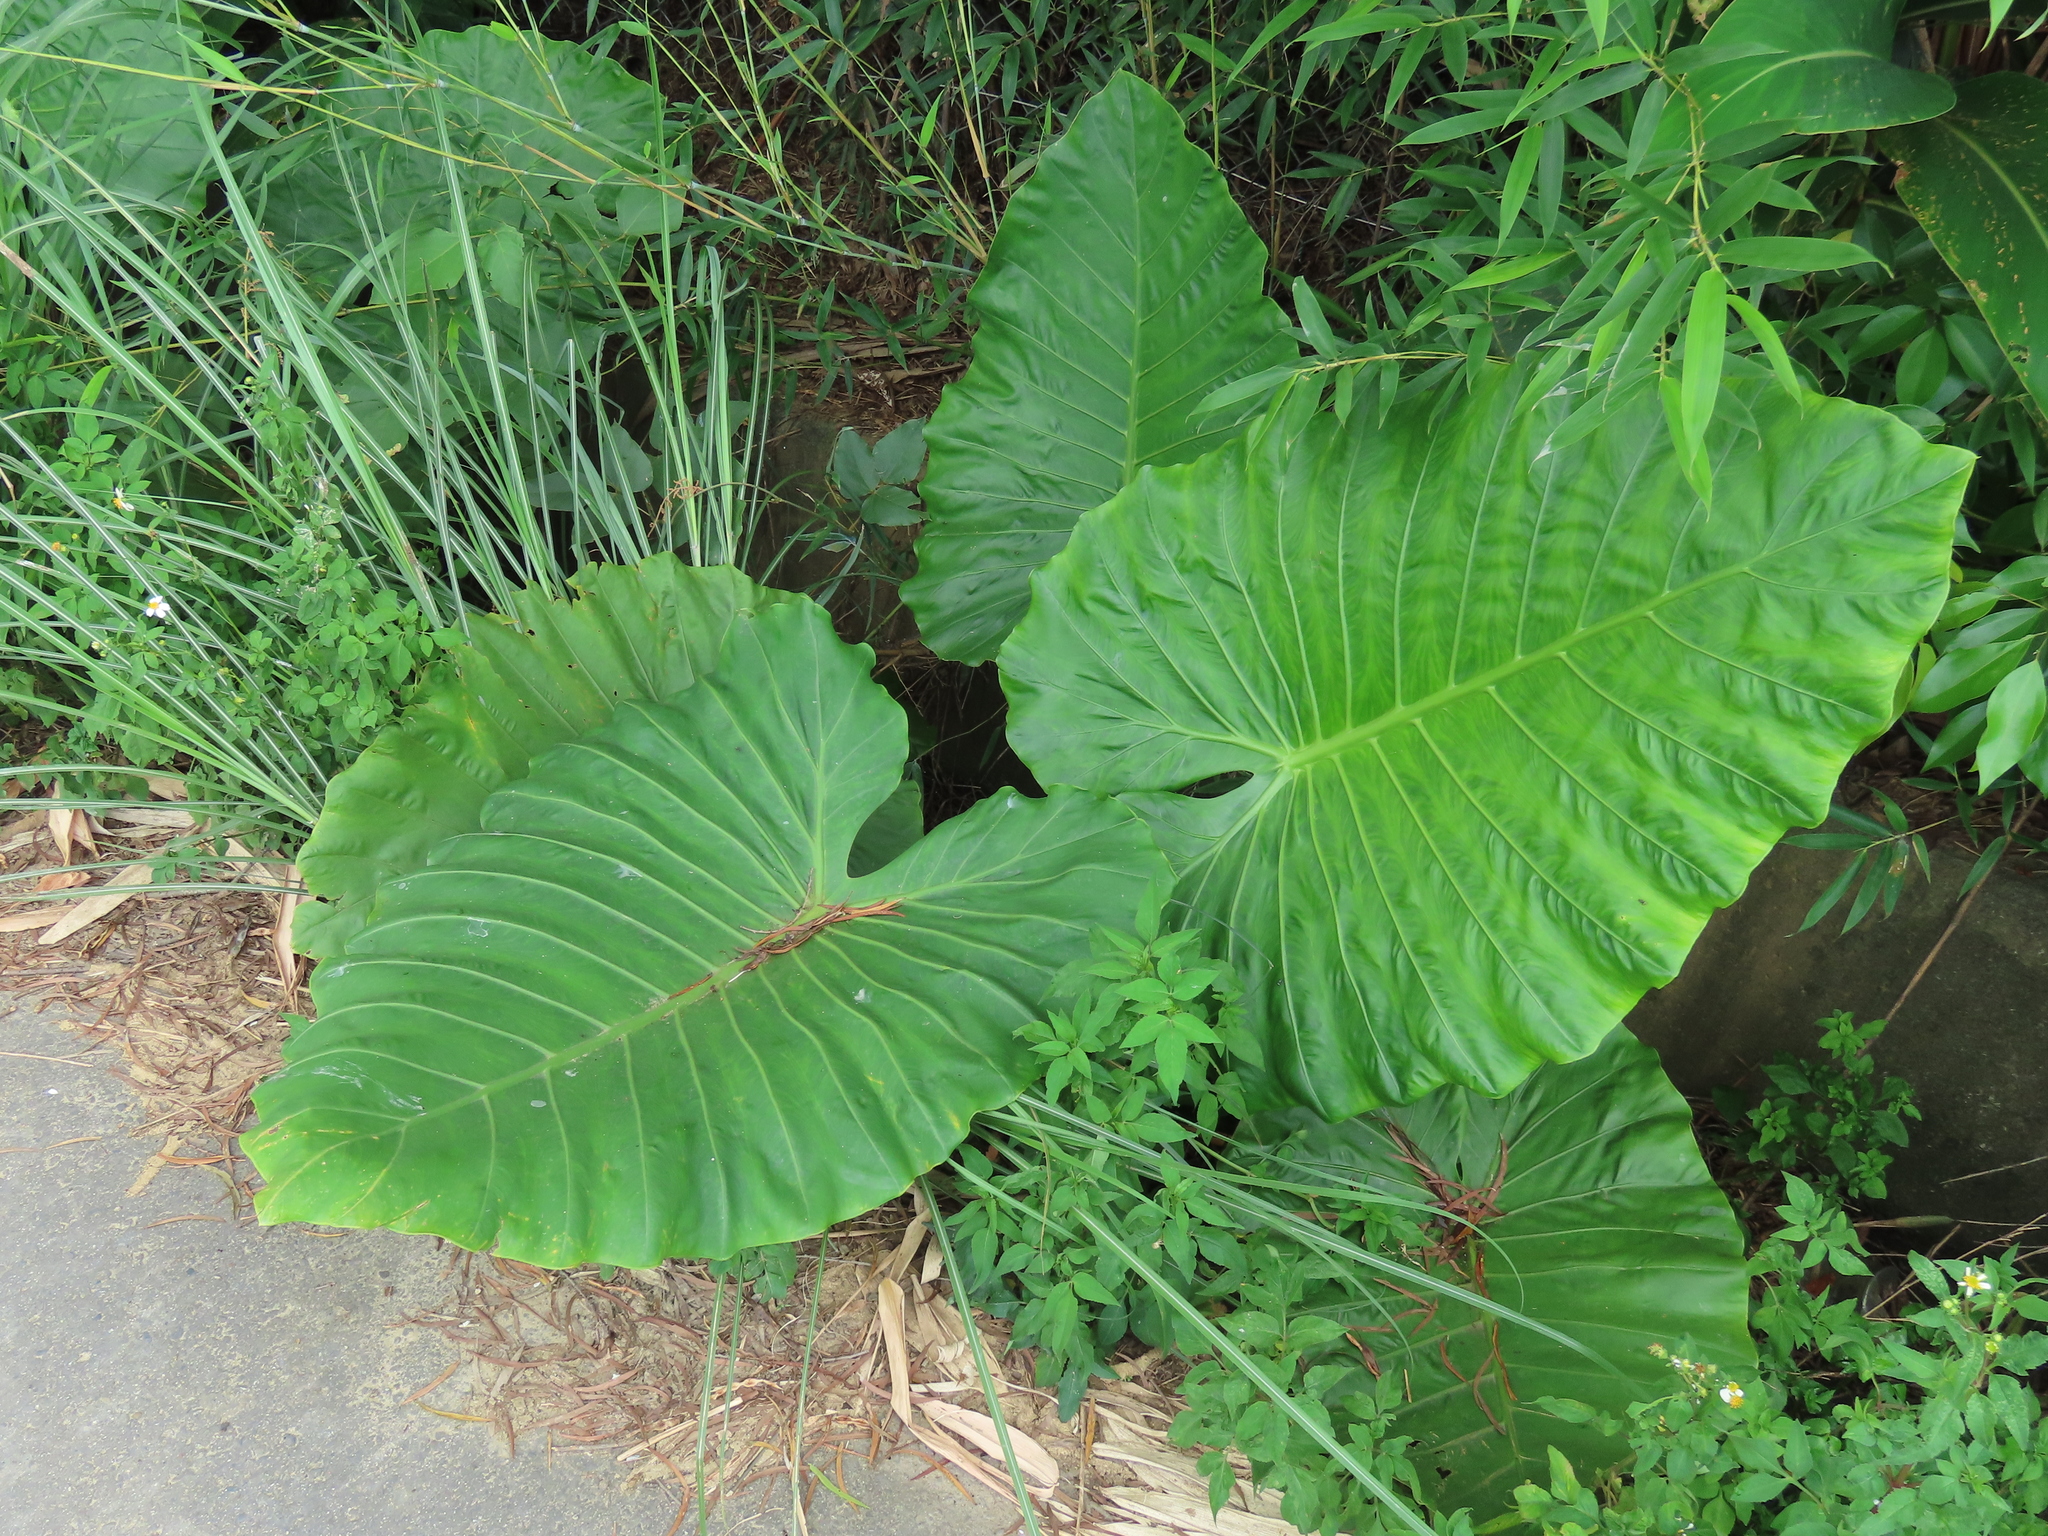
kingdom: Plantae
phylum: Tracheophyta
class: Liliopsida
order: Alismatales
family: Araceae
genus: Alocasia
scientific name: Alocasia odora
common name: Asian taro
